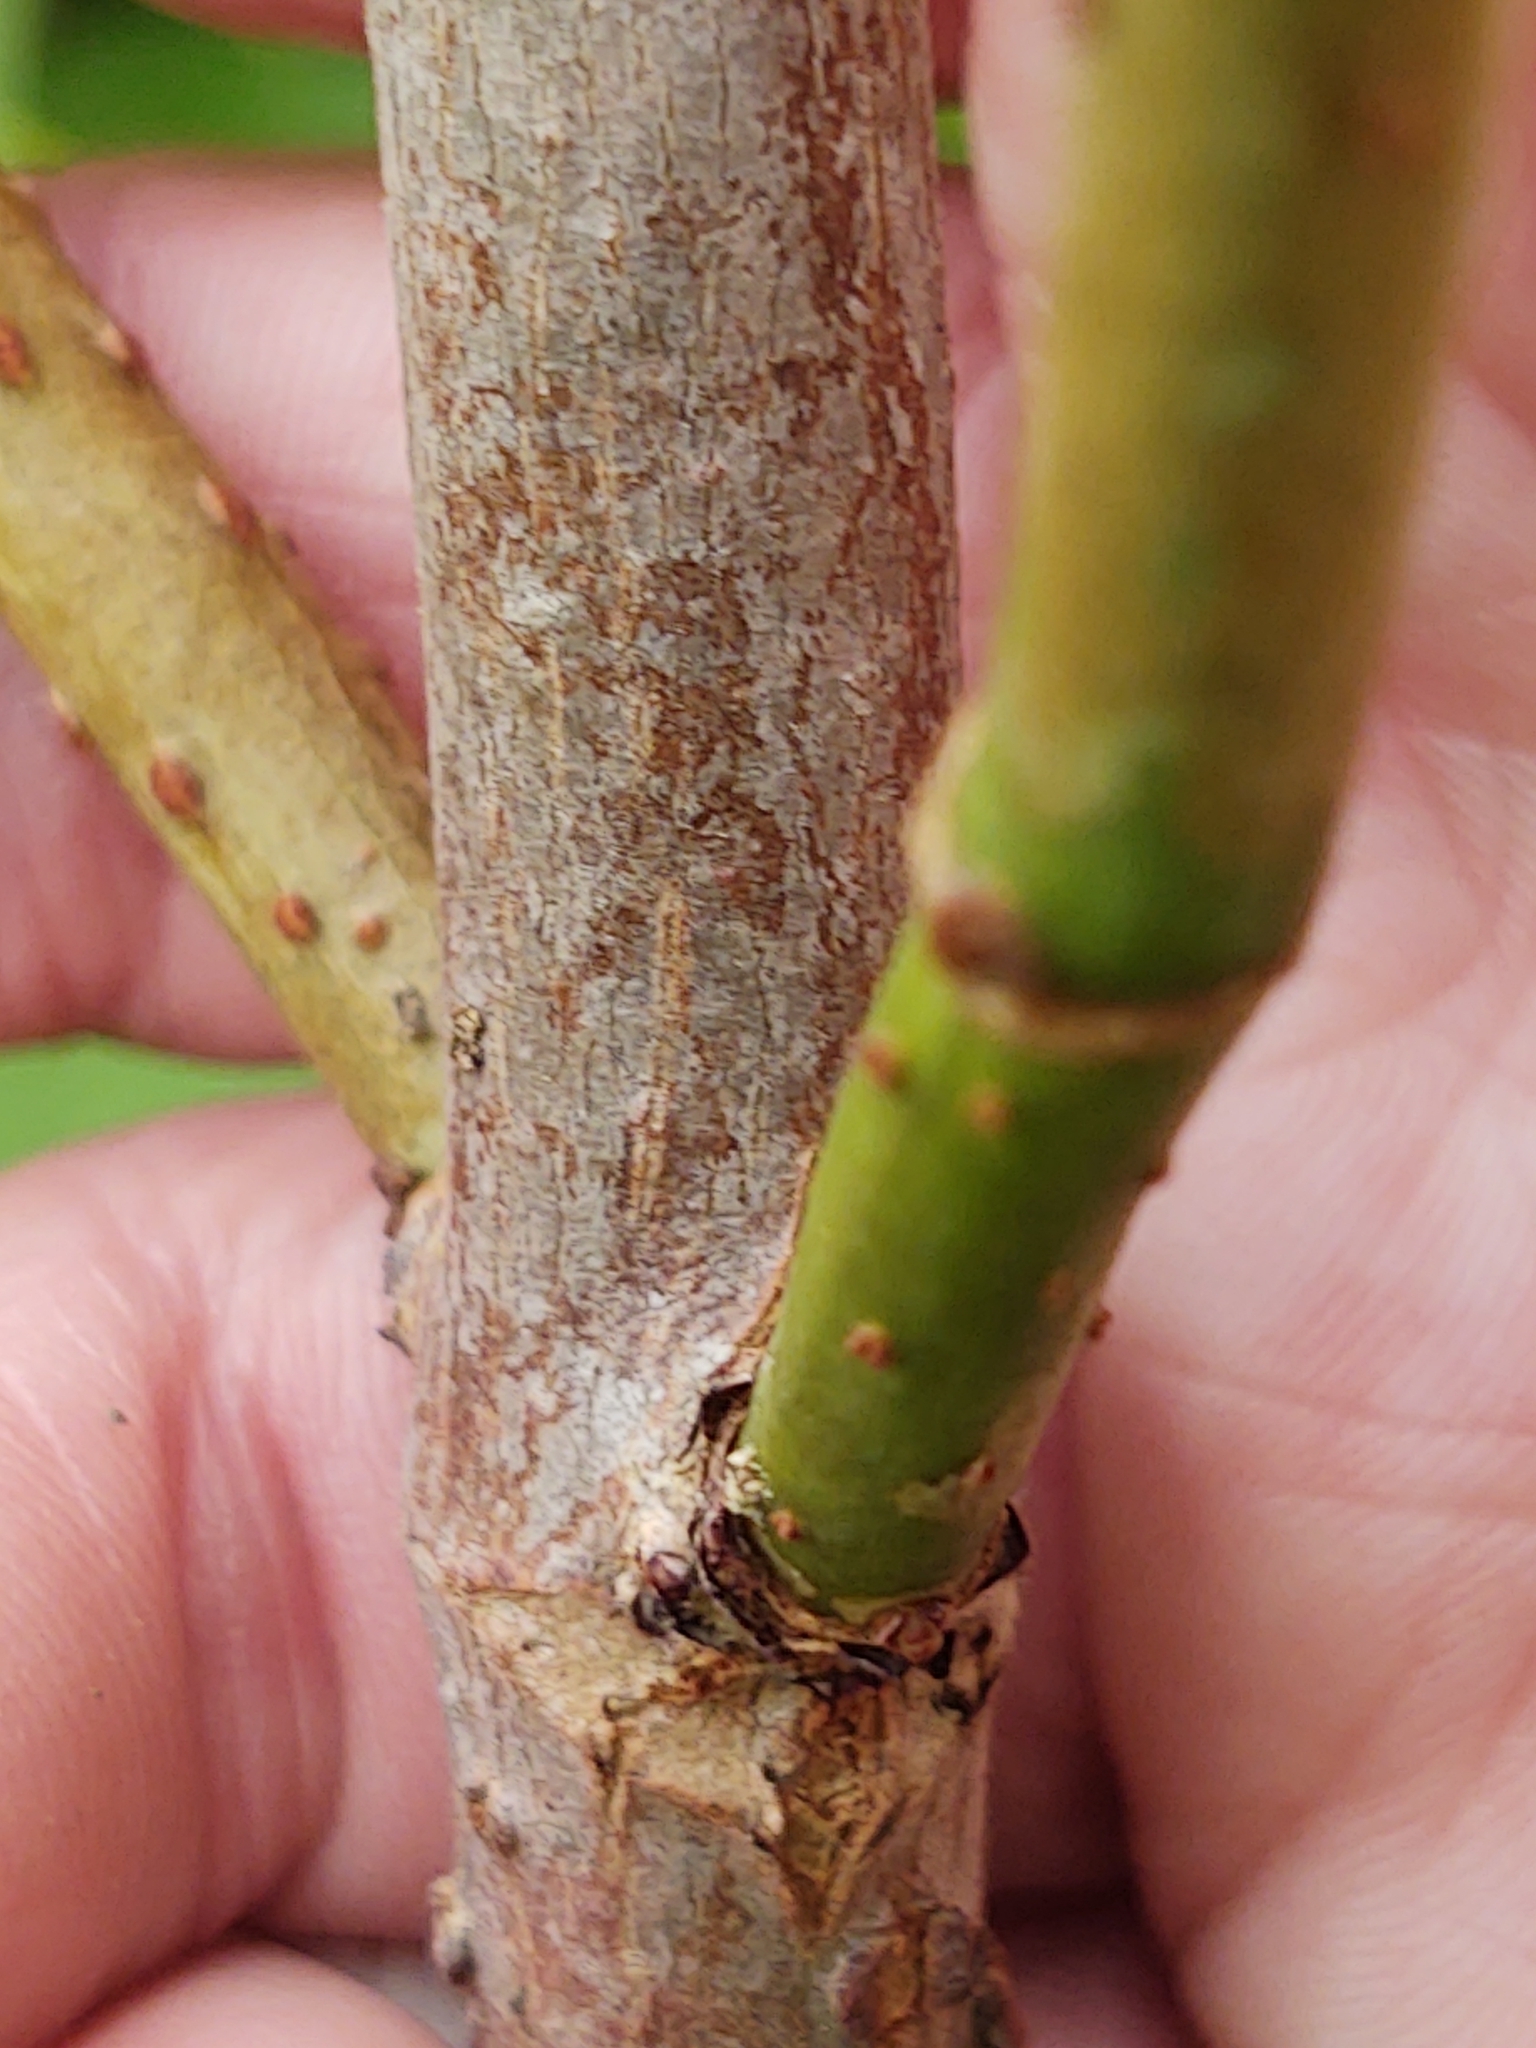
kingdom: Plantae
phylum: Tracheophyta
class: Magnoliopsida
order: Dipsacales
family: Viburnaceae
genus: Sambucus
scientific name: Sambucus canadensis
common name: American elder
